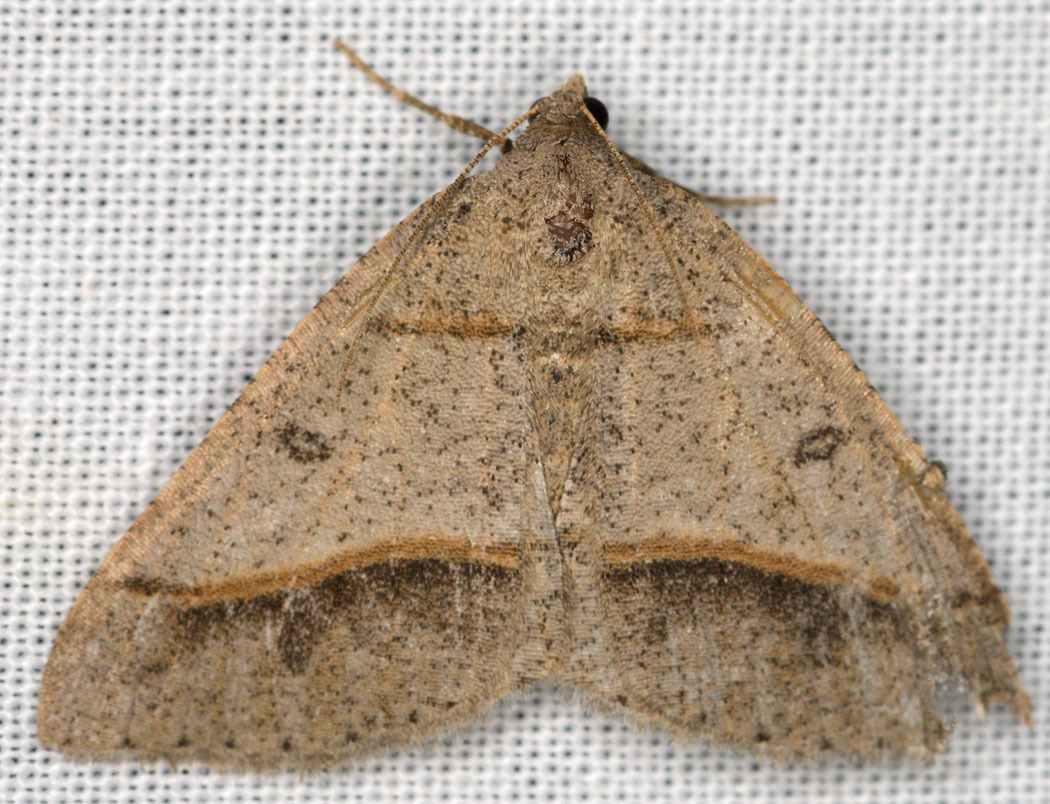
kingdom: Animalia
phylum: Arthropoda
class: Insecta
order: Lepidoptera
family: Geometridae
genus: Digrammia
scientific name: Digrammia neptaria
